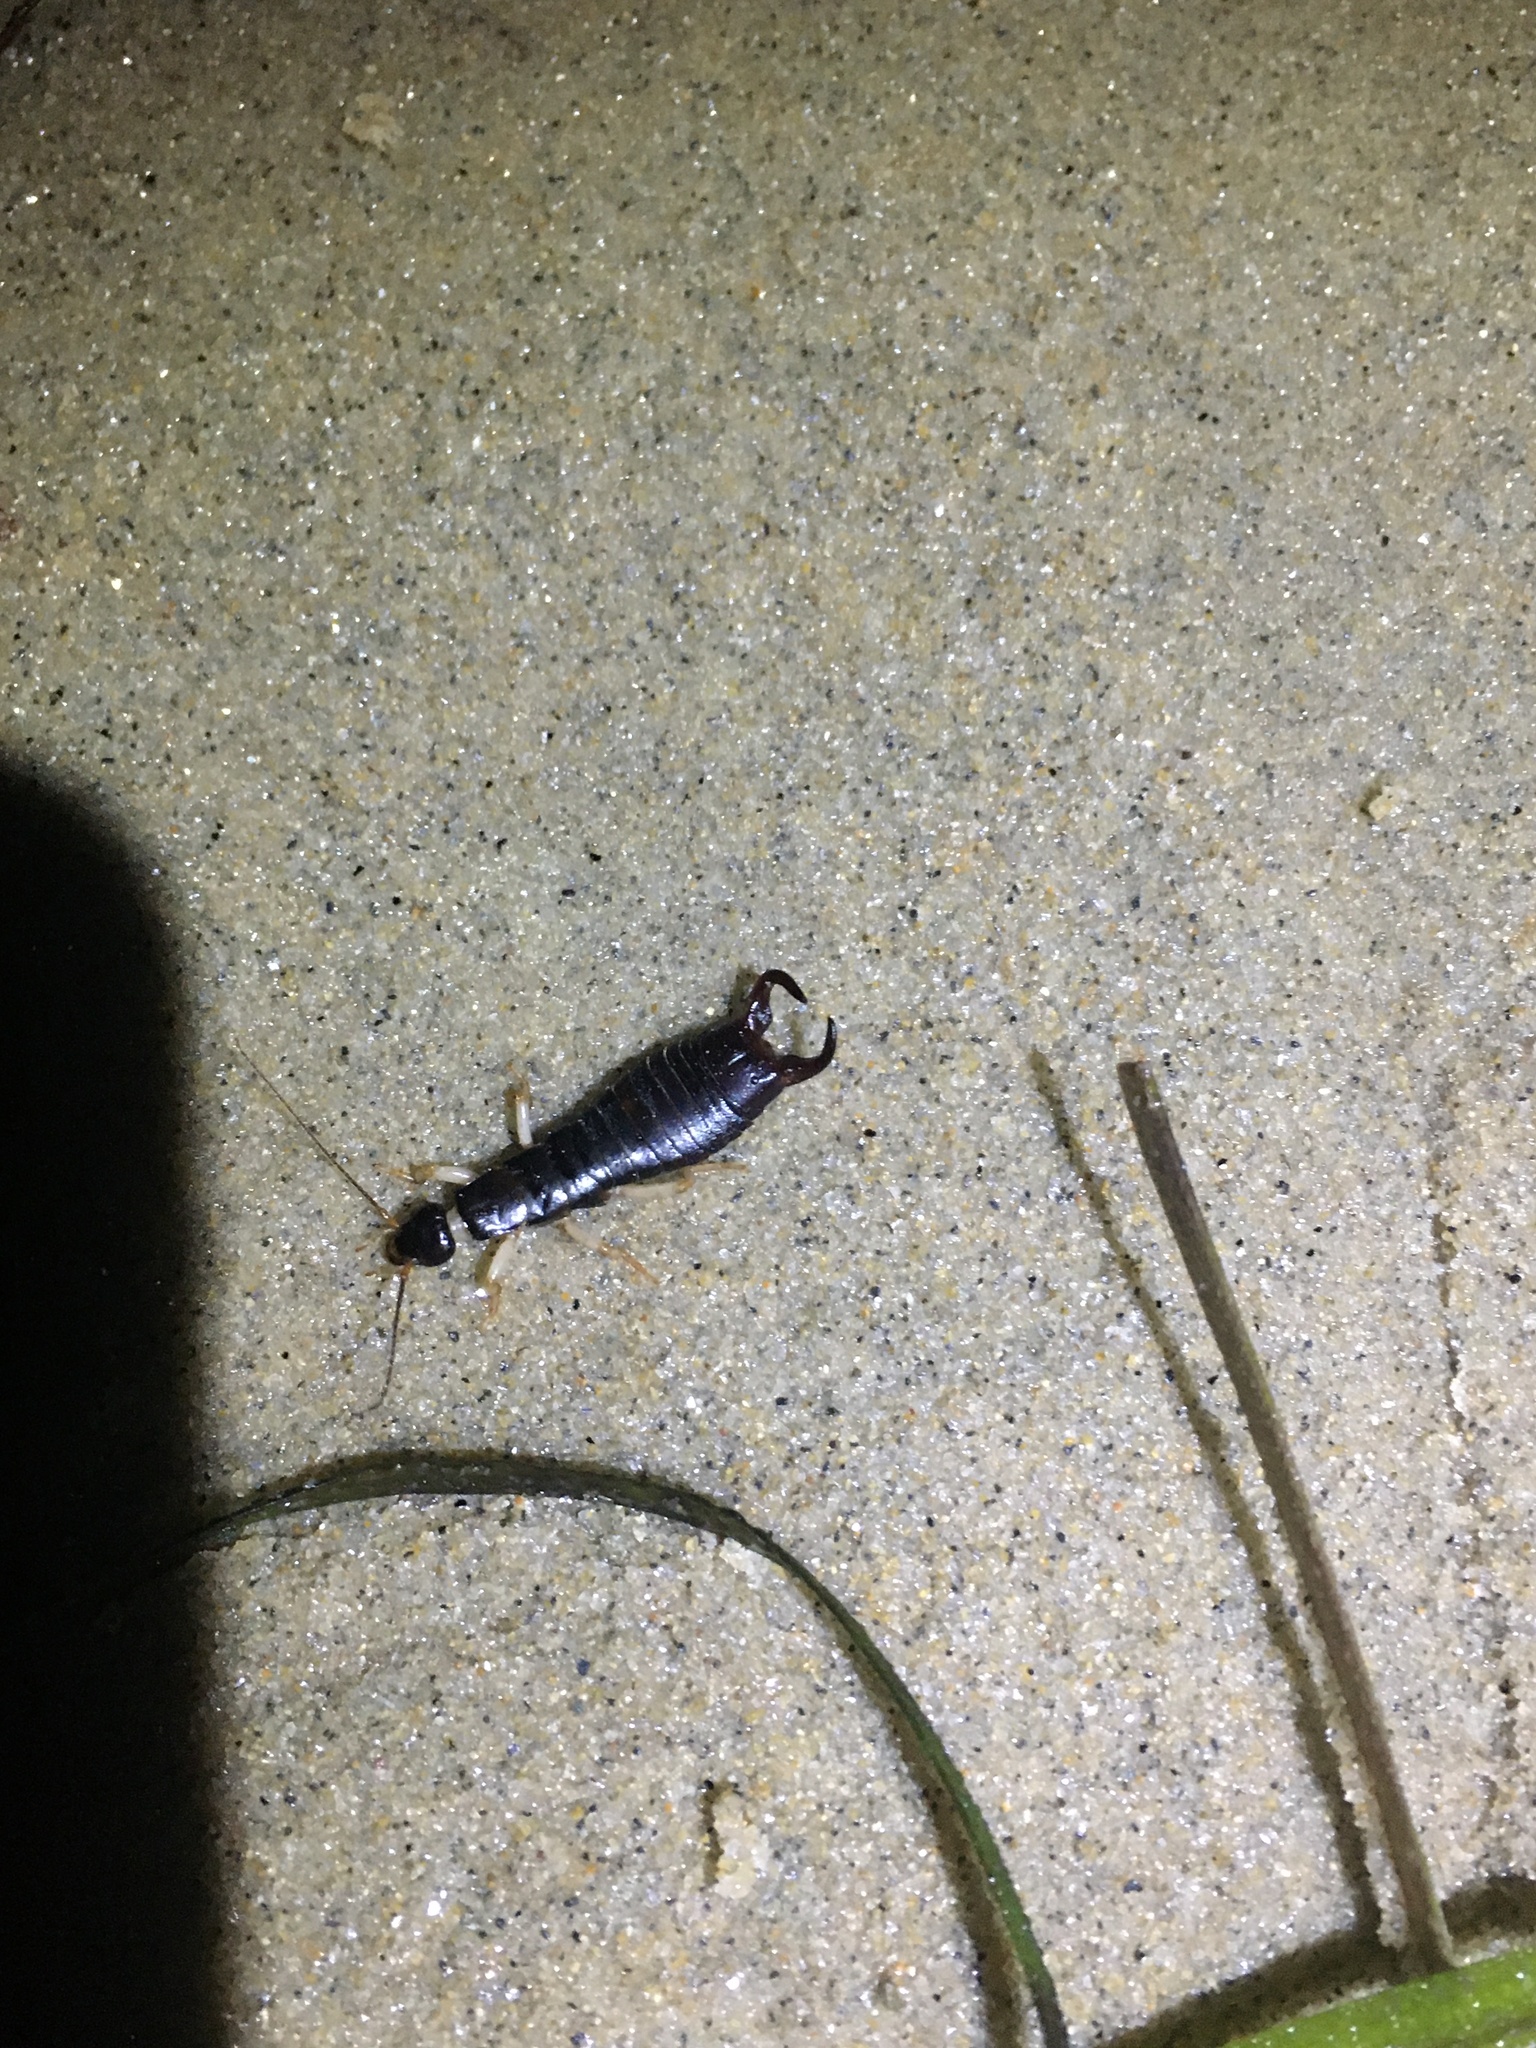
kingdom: Animalia
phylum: Arthropoda
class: Insecta
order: Dermaptera
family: Anisolabididae
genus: Anisolabis
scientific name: Anisolabis maritima
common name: Maritime earwig
